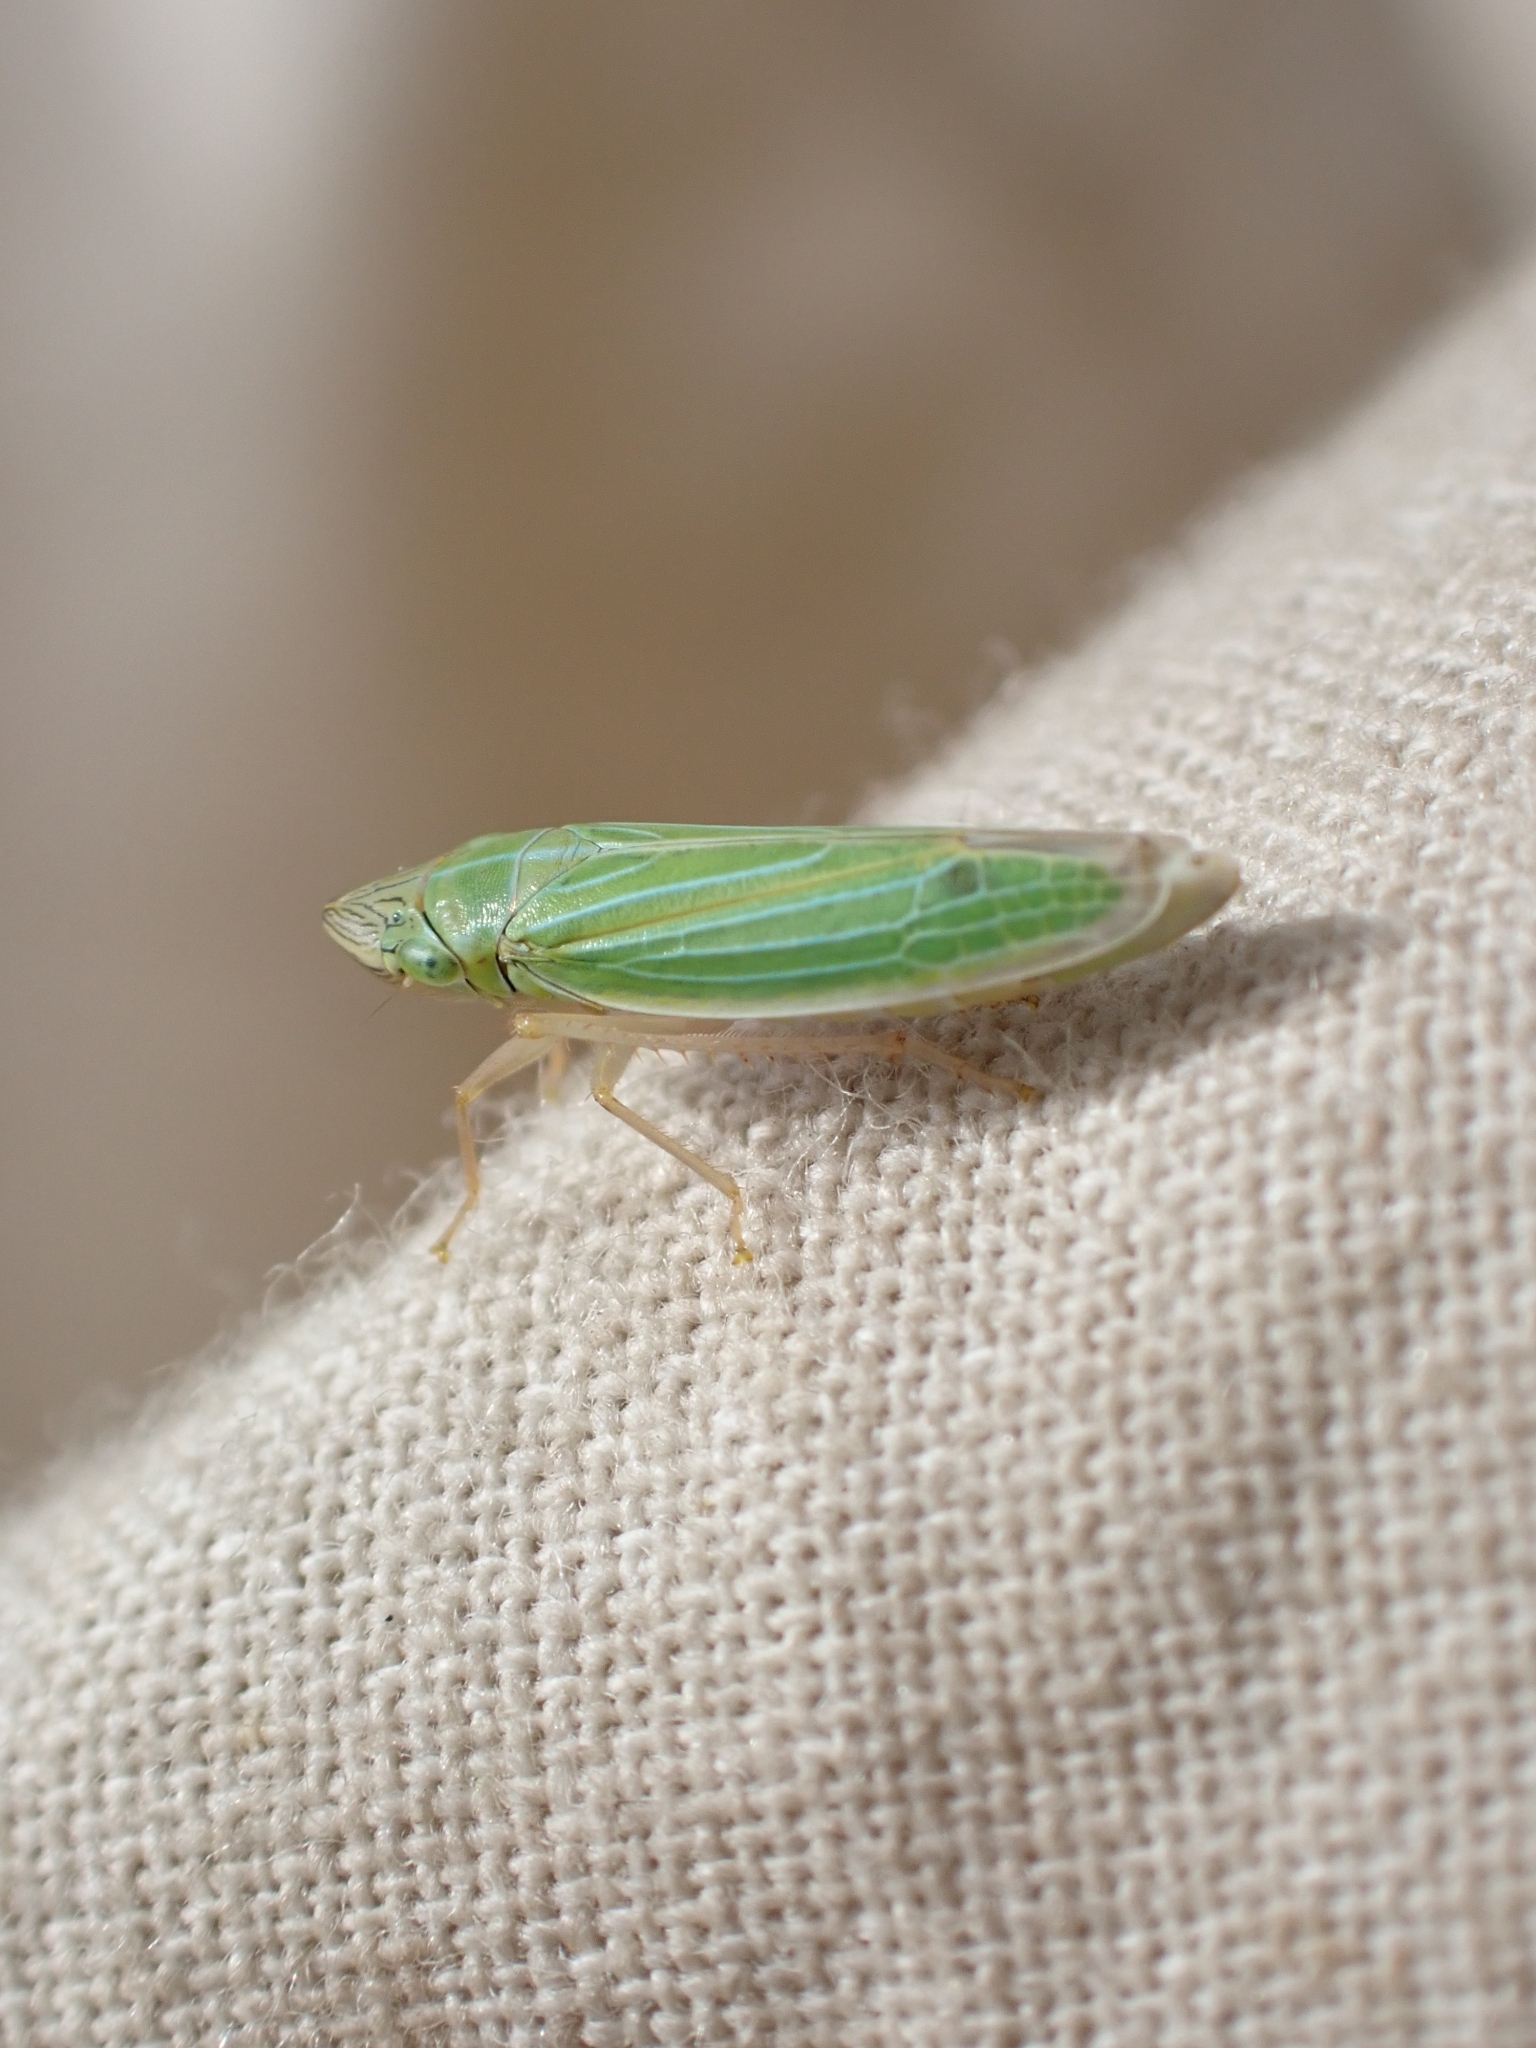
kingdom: Animalia
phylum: Arthropoda
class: Insecta
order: Hemiptera
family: Cicadellidae
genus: Draeculacephala
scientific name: Draeculacephala angulifera
